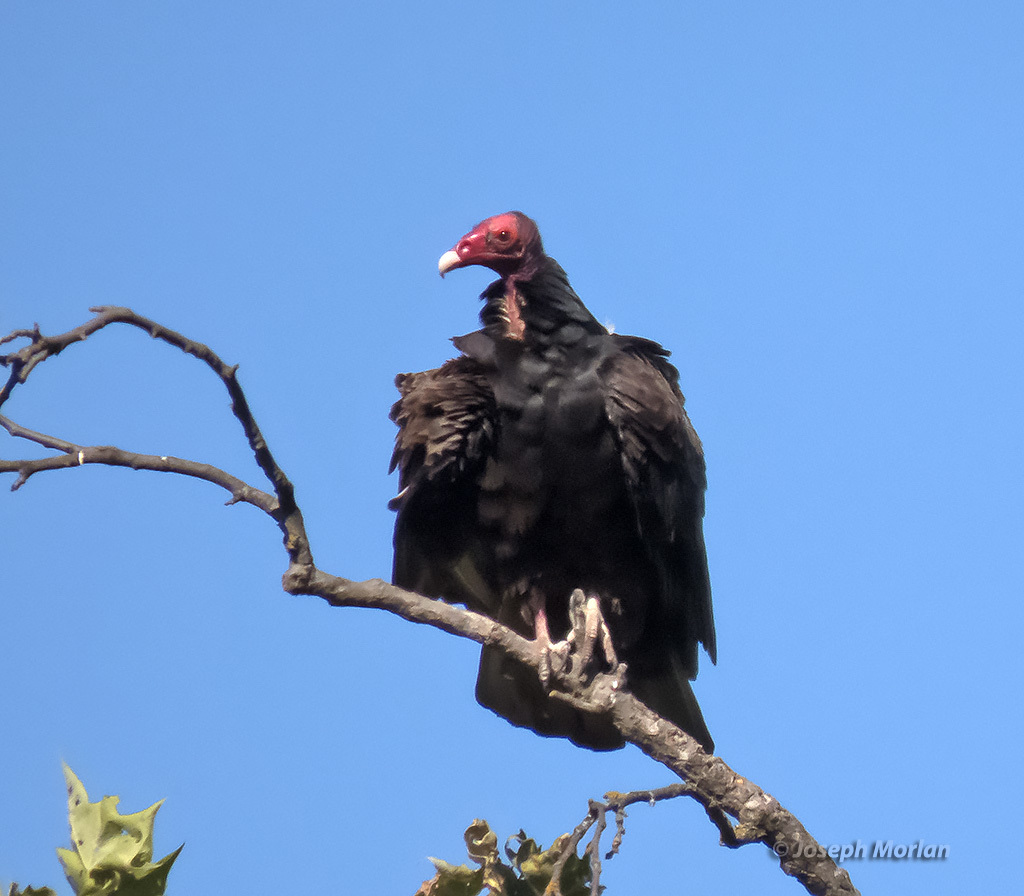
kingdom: Animalia
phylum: Chordata
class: Aves
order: Accipitriformes
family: Cathartidae
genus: Cathartes
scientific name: Cathartes aura
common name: Turkey vulture
